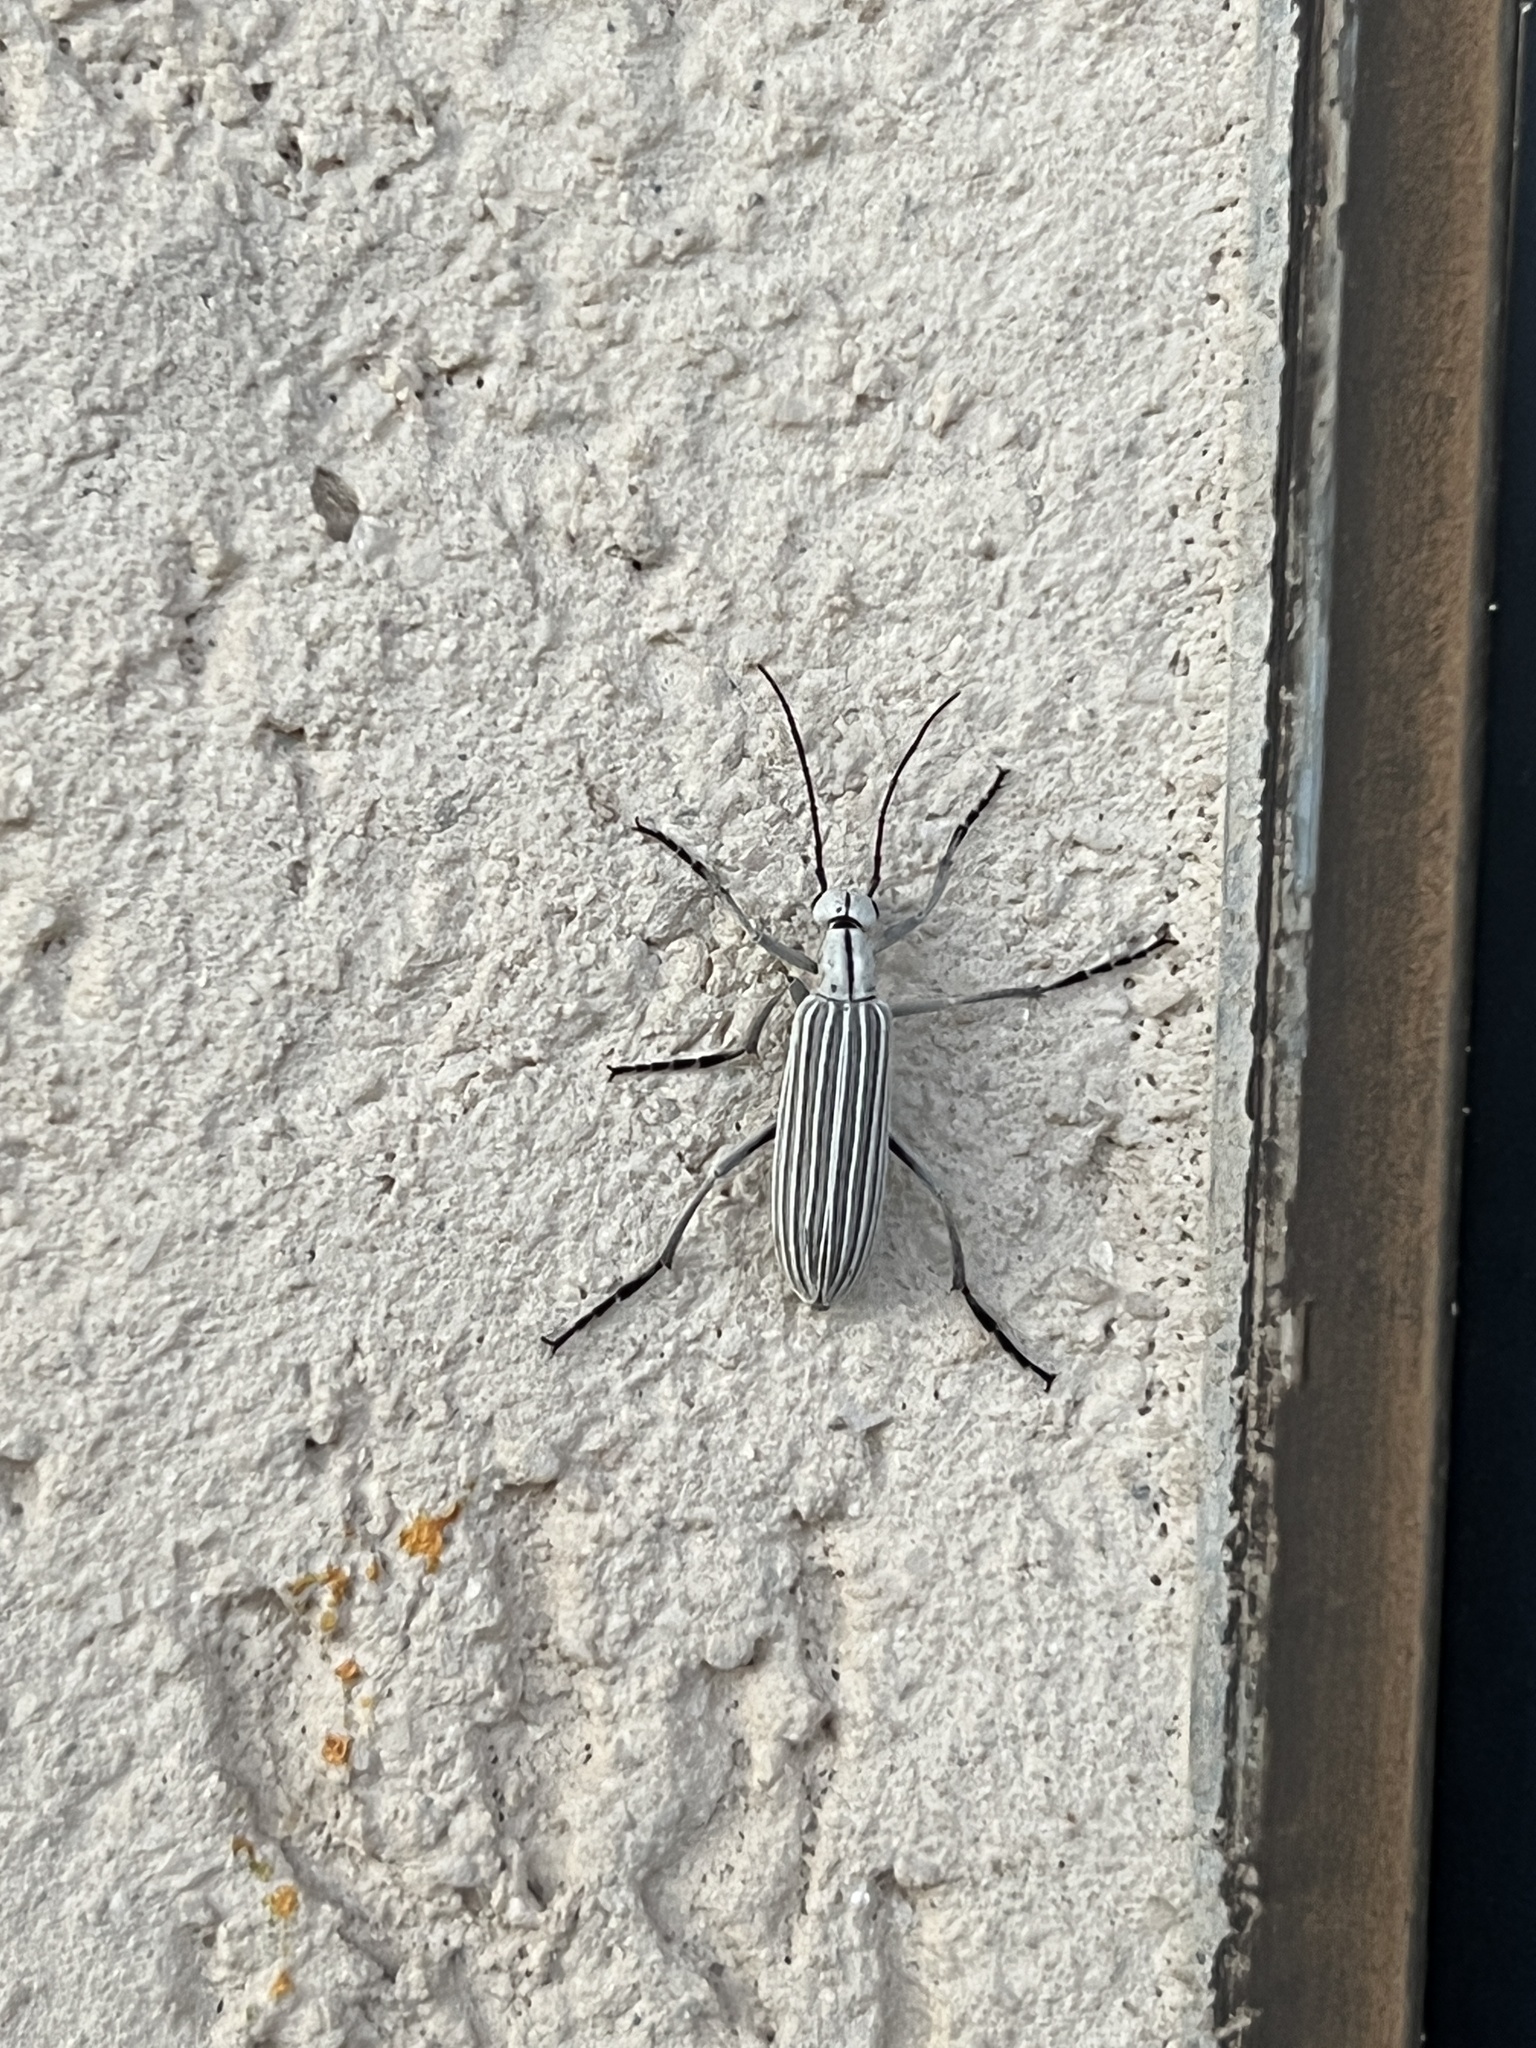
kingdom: Animalia
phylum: Arthropoda
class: Insecta
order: Coleoptera
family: Meloidae
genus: Epicauta
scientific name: Epicauta costata
